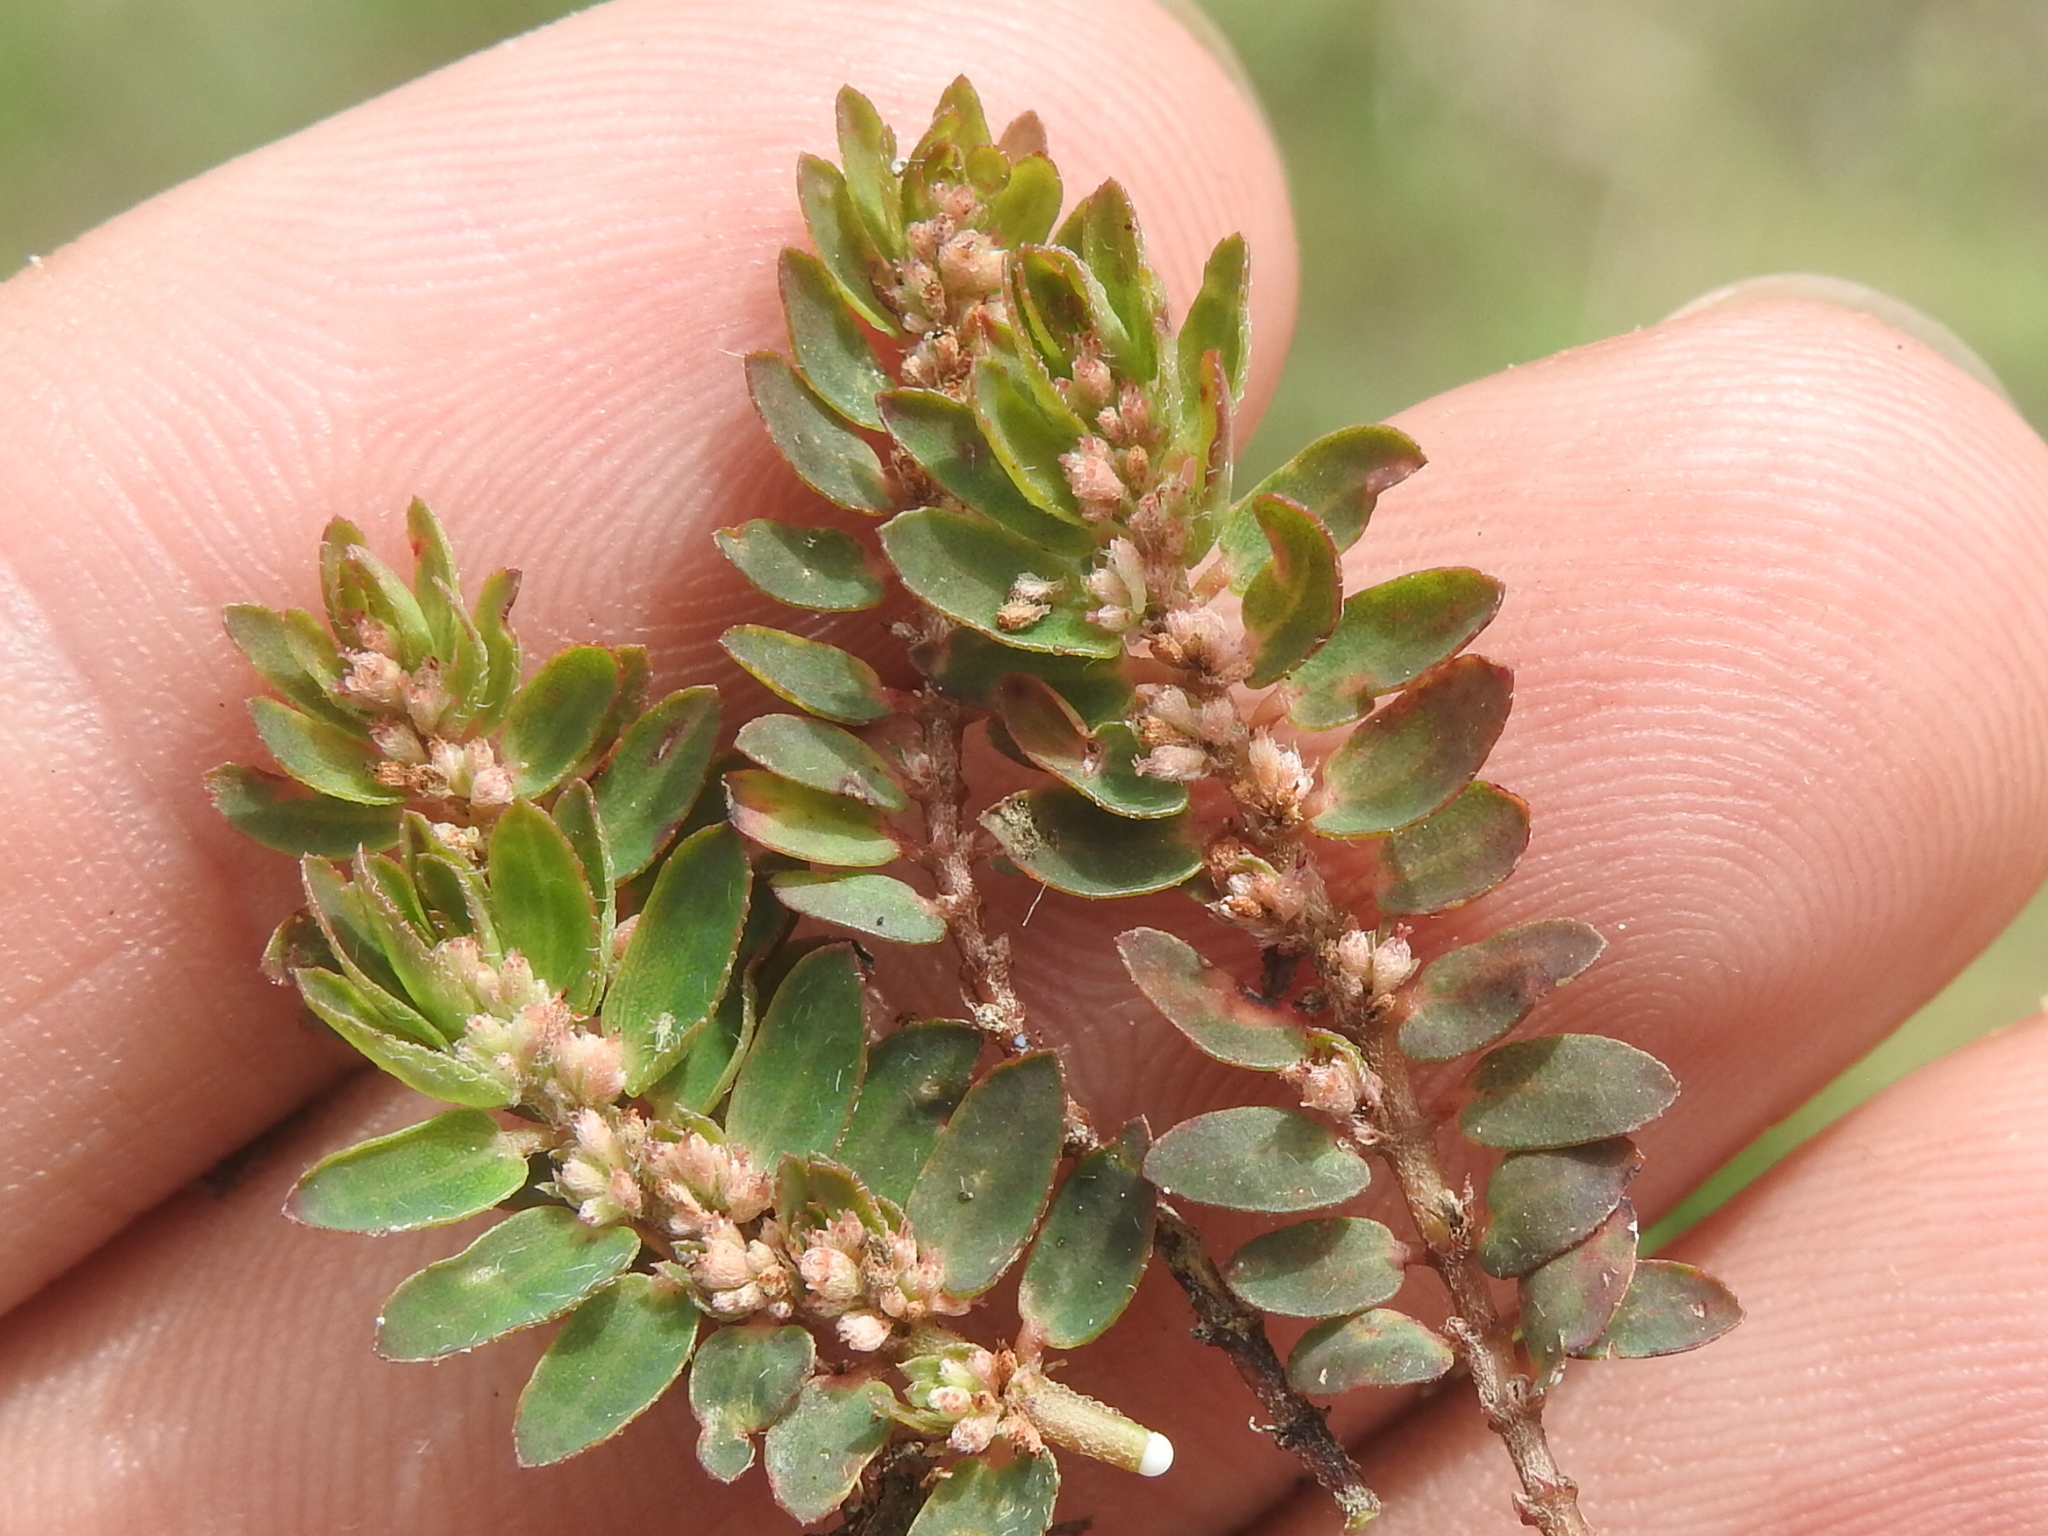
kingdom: Plantae
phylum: Tracheophyta
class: Magnoliopsida
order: Malpighiales
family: Euphorbiaceae
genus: Euphorbia
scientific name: Euphorbia thymifolia
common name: Gulf sandmat
